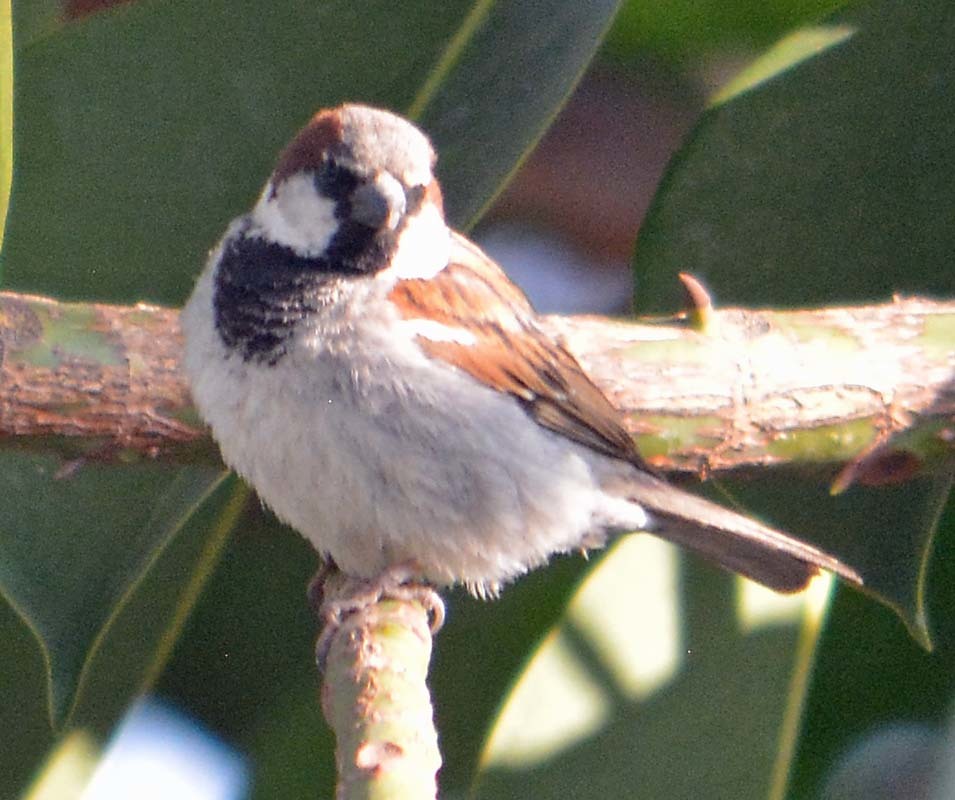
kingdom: Animalia
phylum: Chordata
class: Aves
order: Passeriformes
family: Passeridae
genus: Passer
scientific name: Passer domesticus
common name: House sparrow
